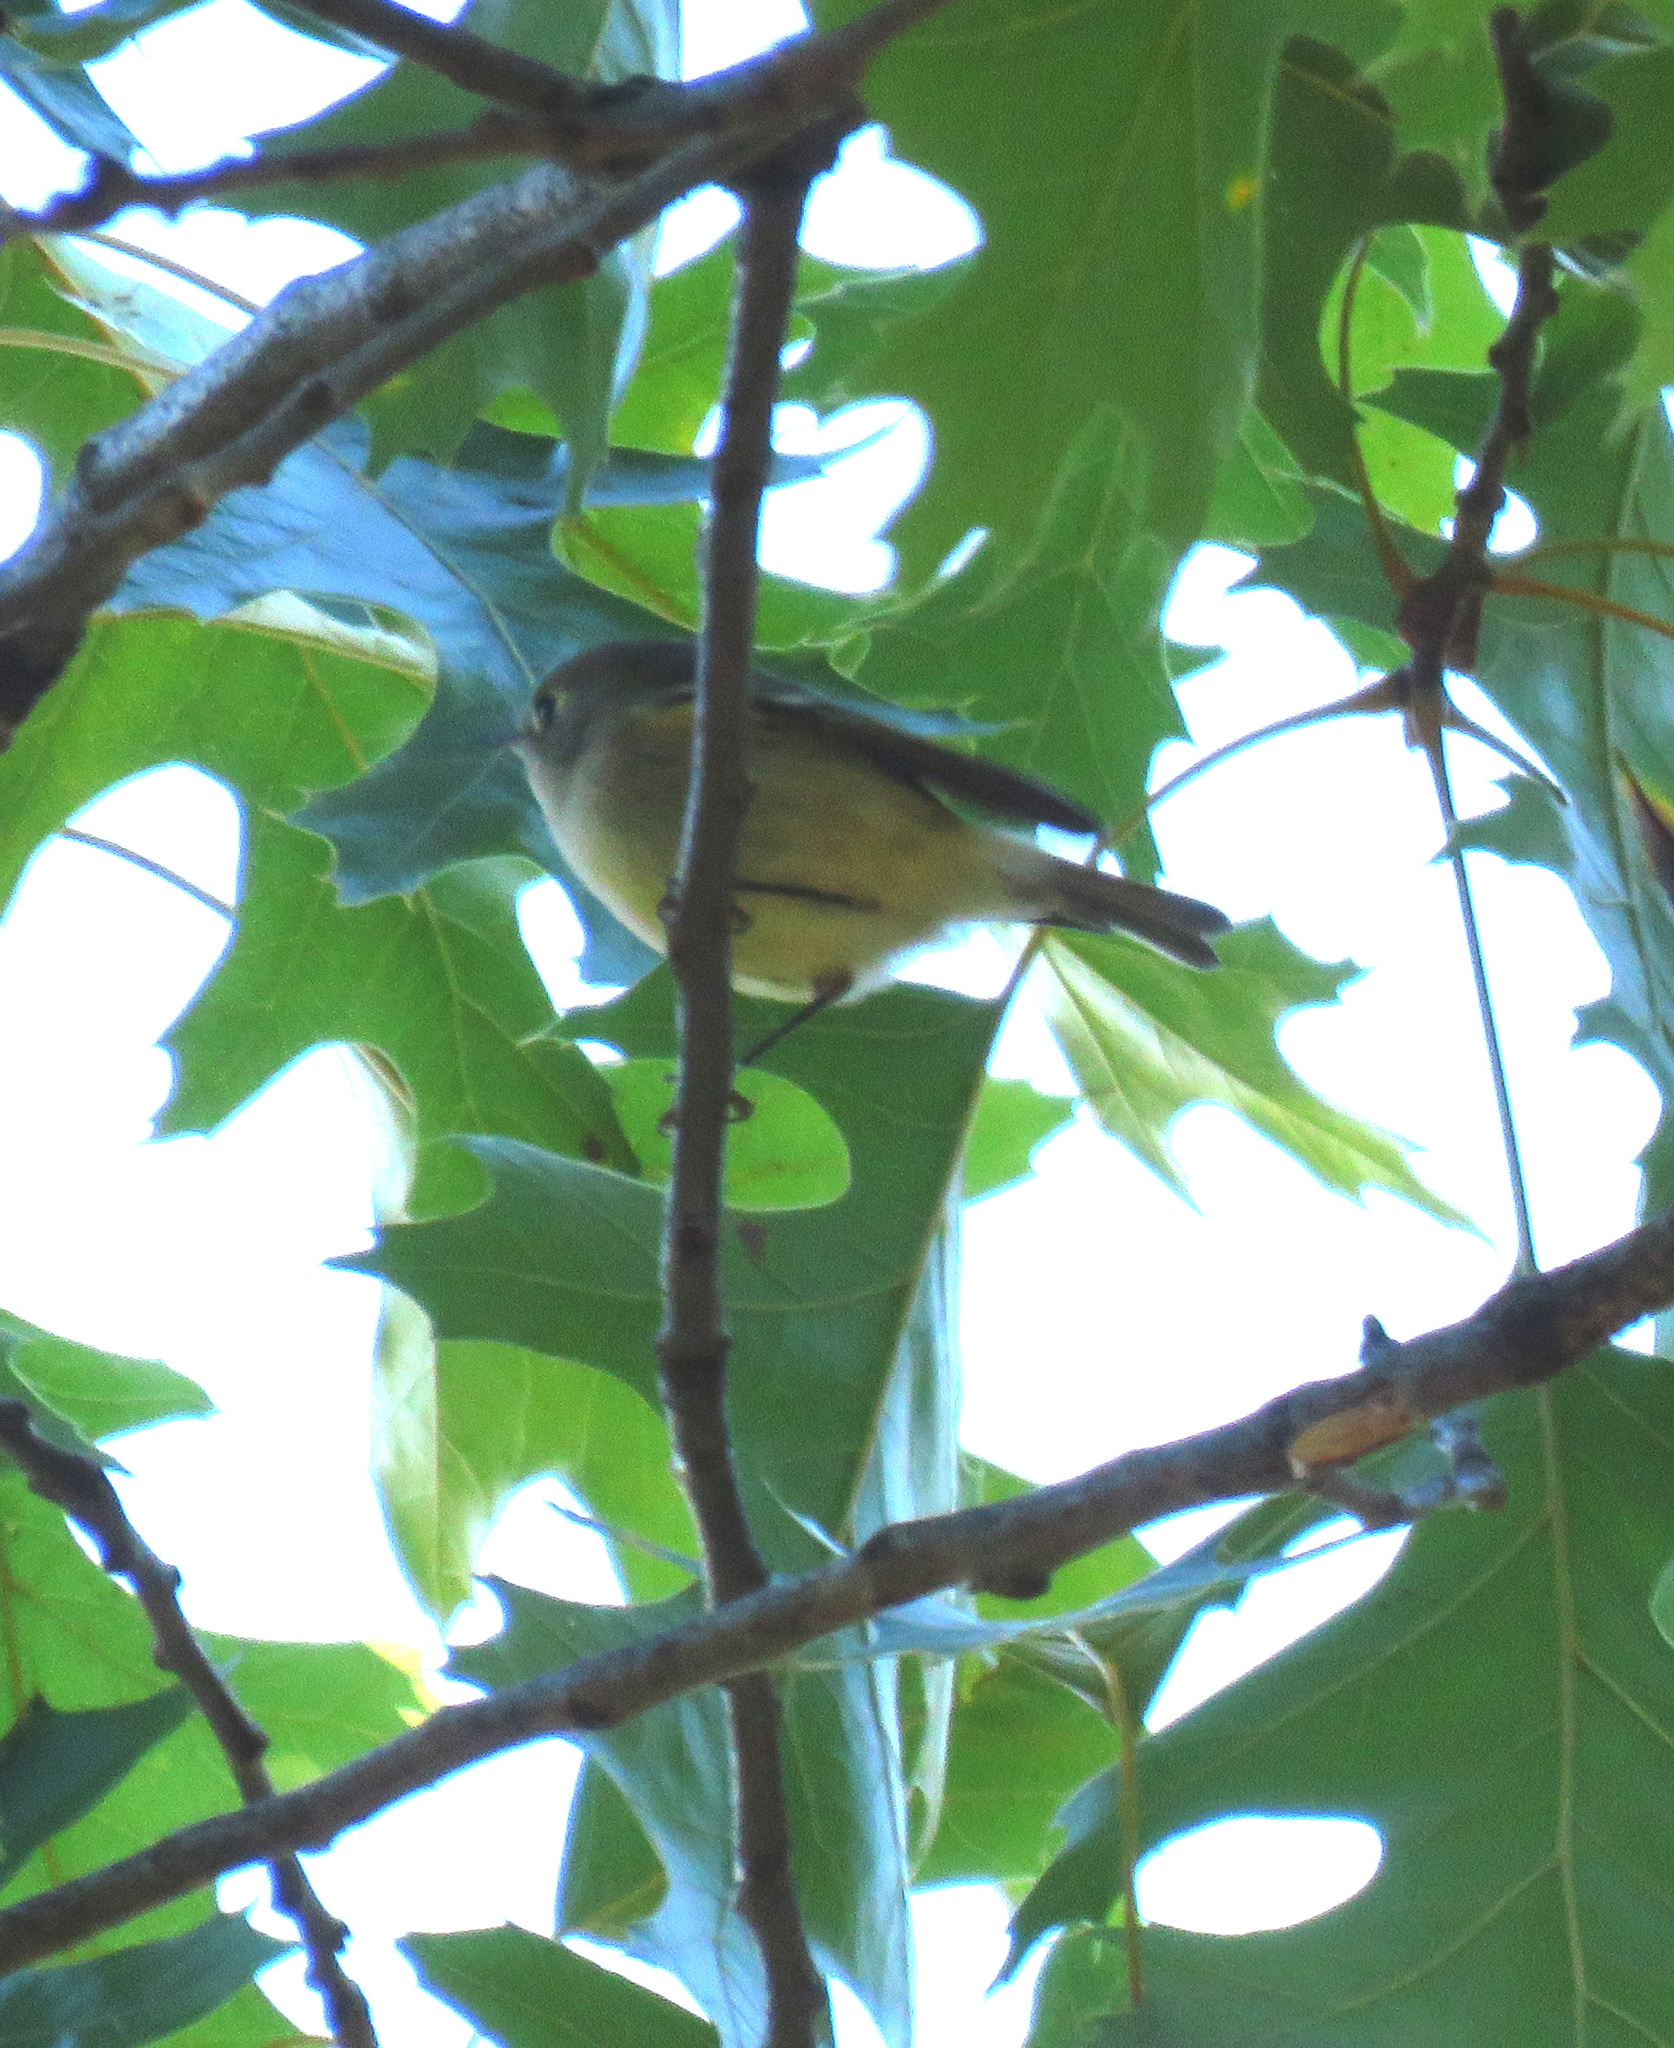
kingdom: Animalia
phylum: Chordata
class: Aves
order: Passeriformes
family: Regulidae
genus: Regulus
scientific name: Regulus calendula
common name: Ruby-crowned kinglet
